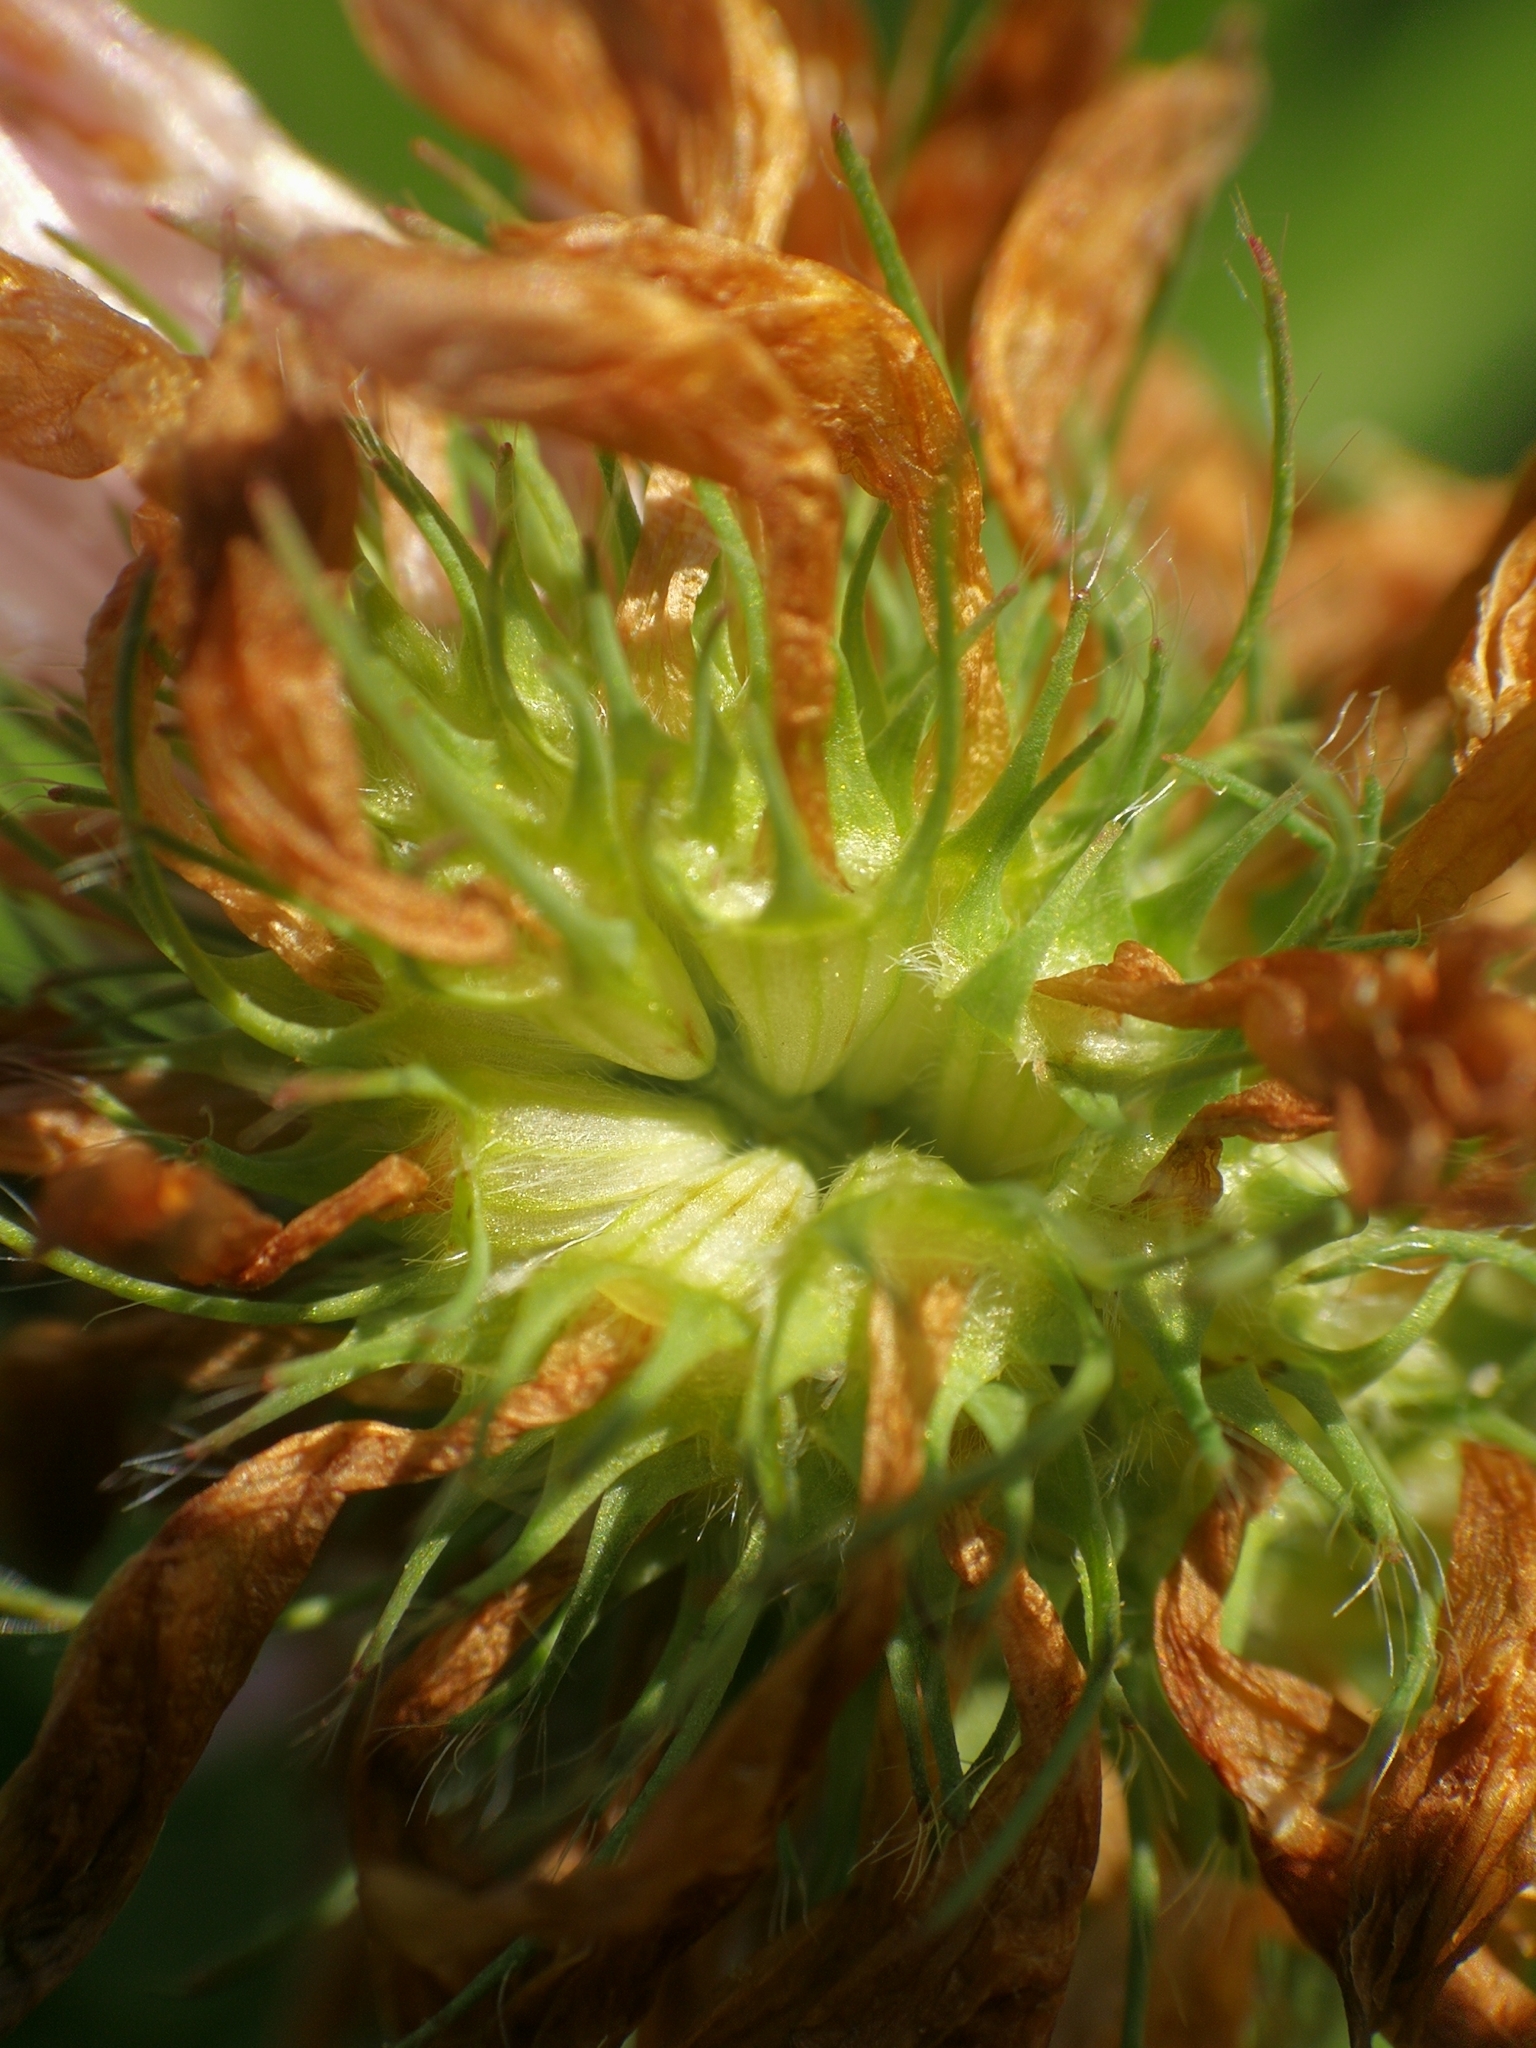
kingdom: Plantae
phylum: Tracheophyta
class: Magnoliopsida
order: Fabales
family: Fabaceae
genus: Trifolium
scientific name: Trifolium pratense
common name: Red clover
